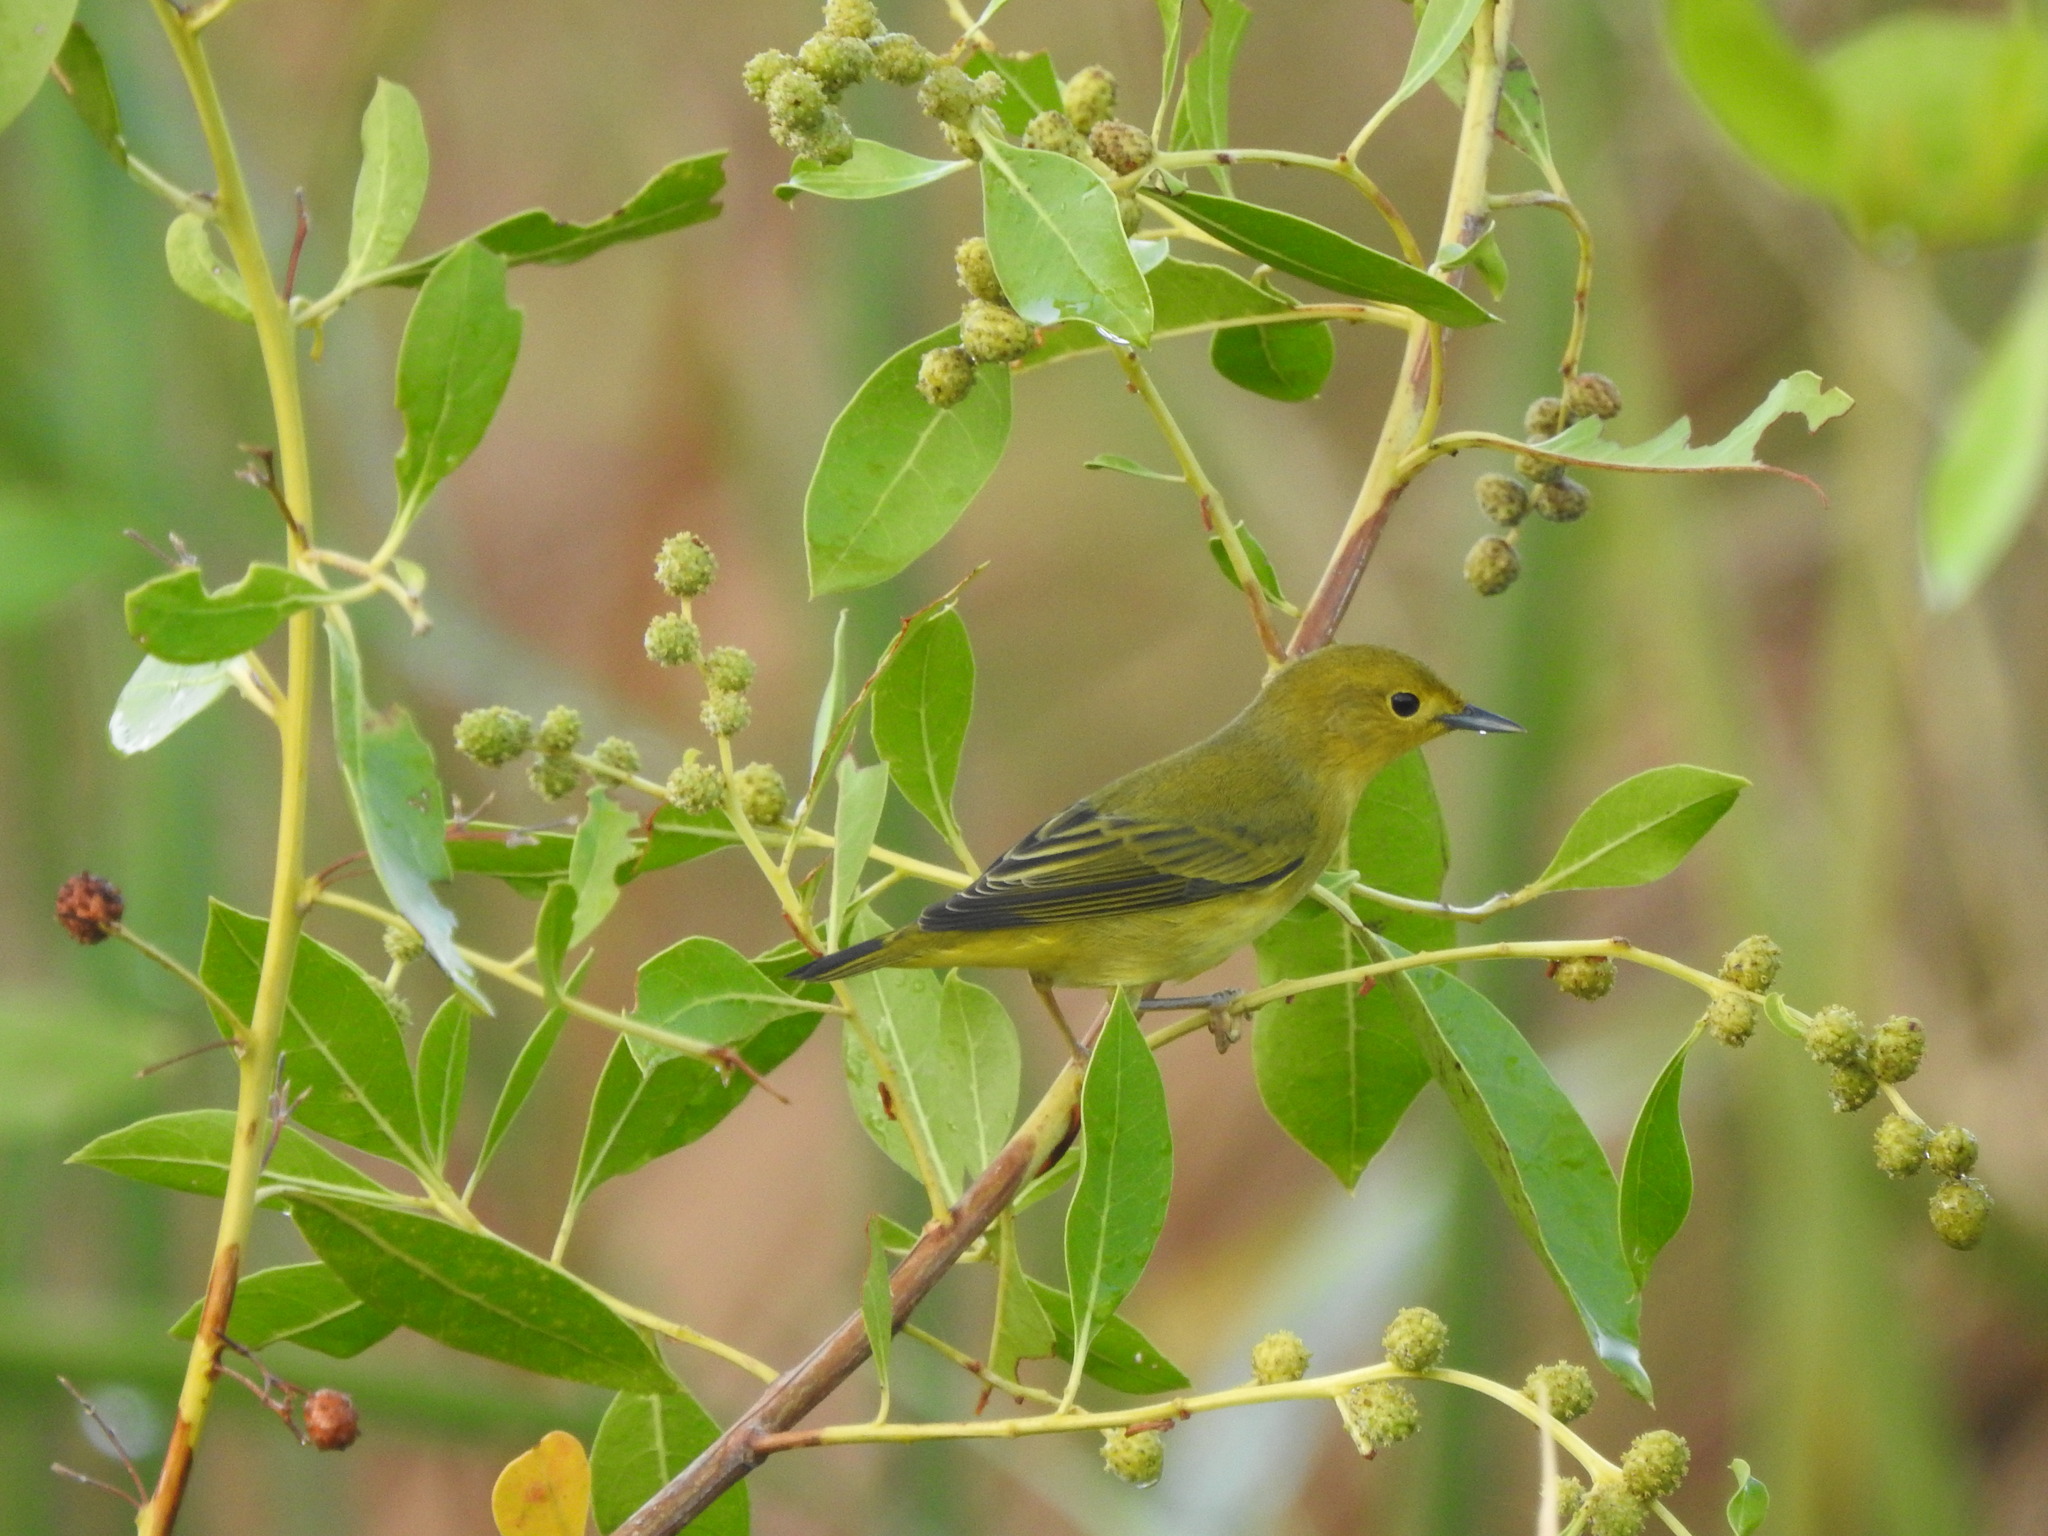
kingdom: Animalia
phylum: Chordata
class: Aves
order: Passeriformes
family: Parulidae
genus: Setophaga
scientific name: Setophaga petechia
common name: Yellow warbler
